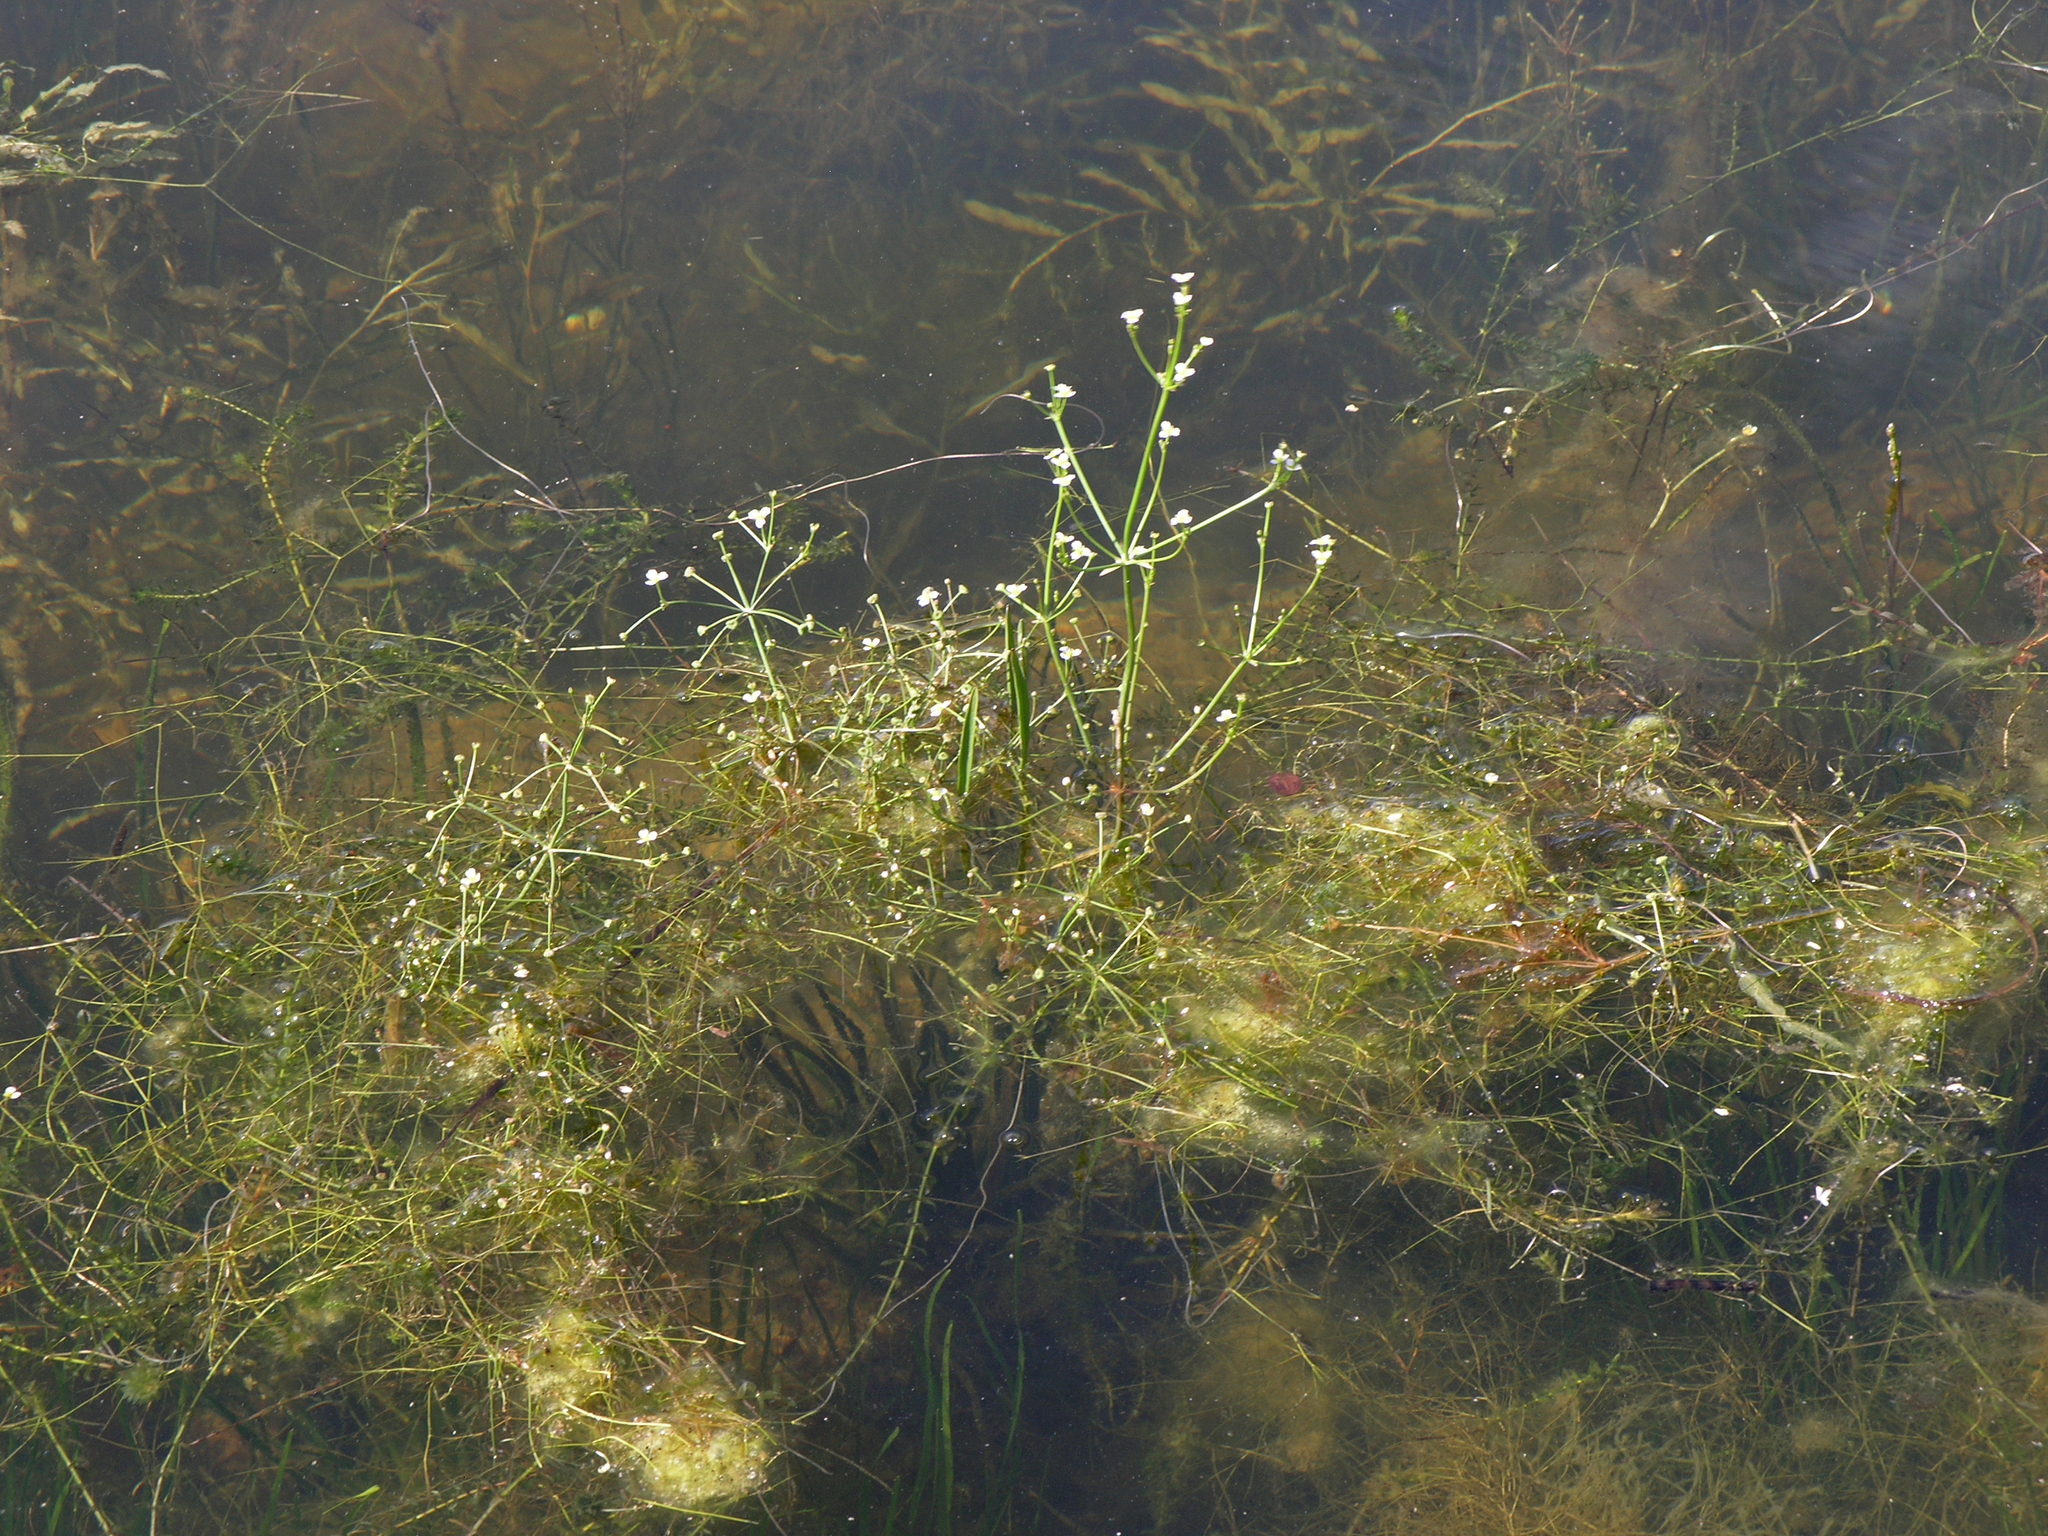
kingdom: Plantae
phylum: Tracheophyta
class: Liliopsida
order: Alismatales
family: Alismataceae
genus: Alisma
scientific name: Alisma gramineum
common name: Ribbon-leaved water-plantain
